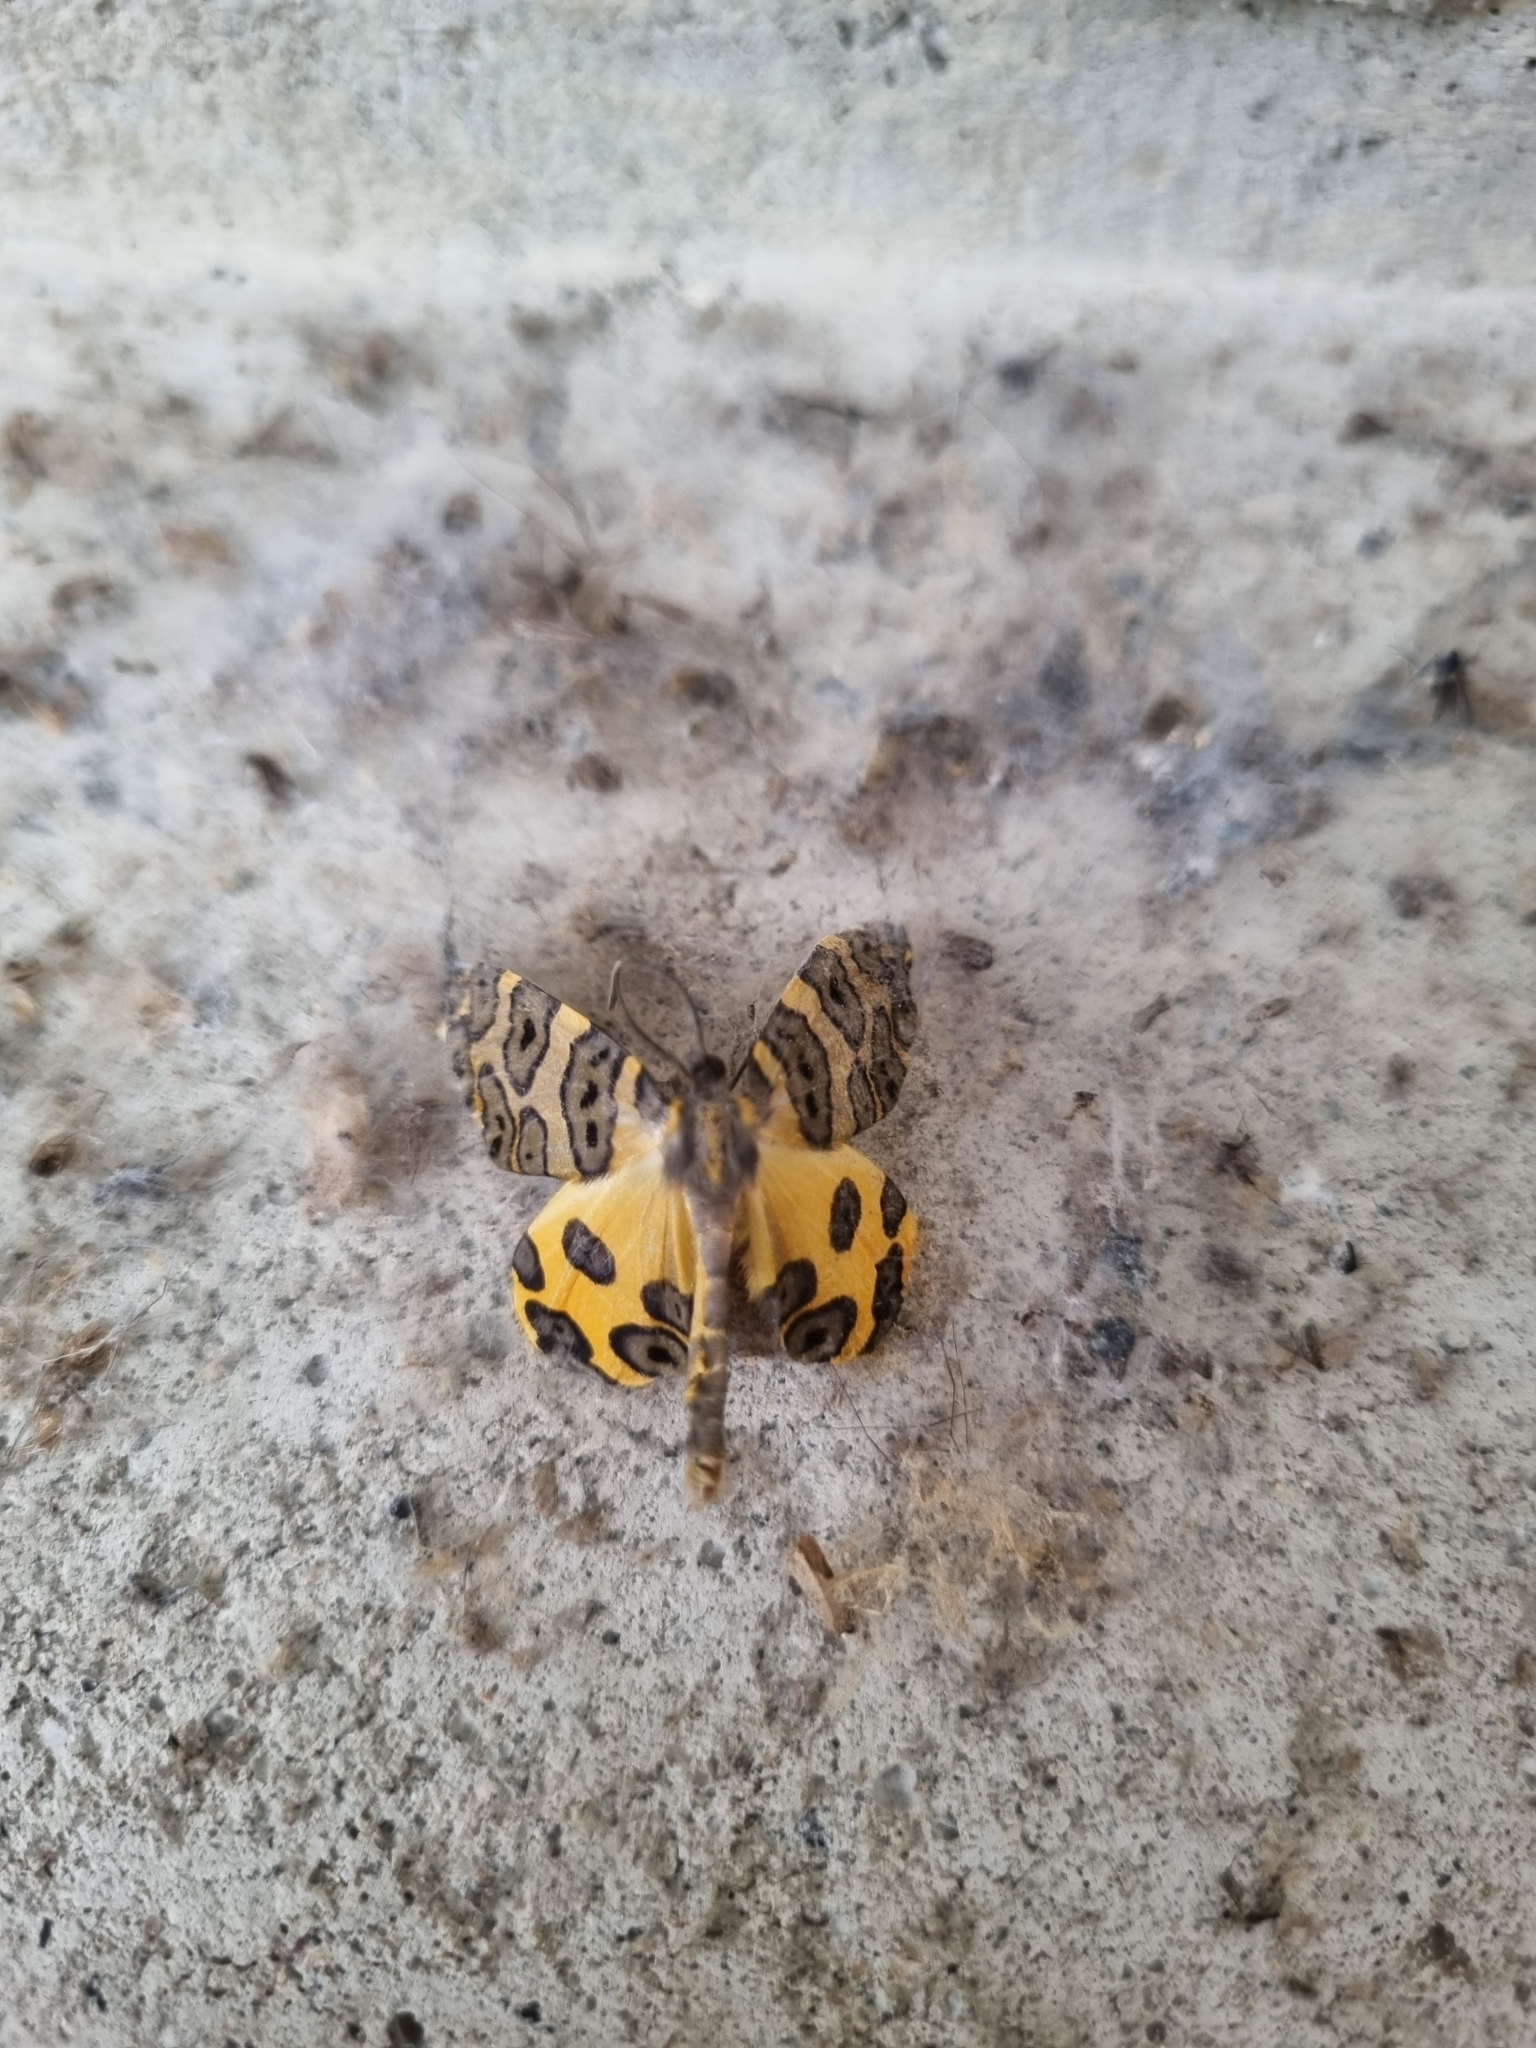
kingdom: Animalia
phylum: Arthropoda
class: Insecta
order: Lepidoptera
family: Geometridae
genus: Pantherodes
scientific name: Pantherodes pardalaria
